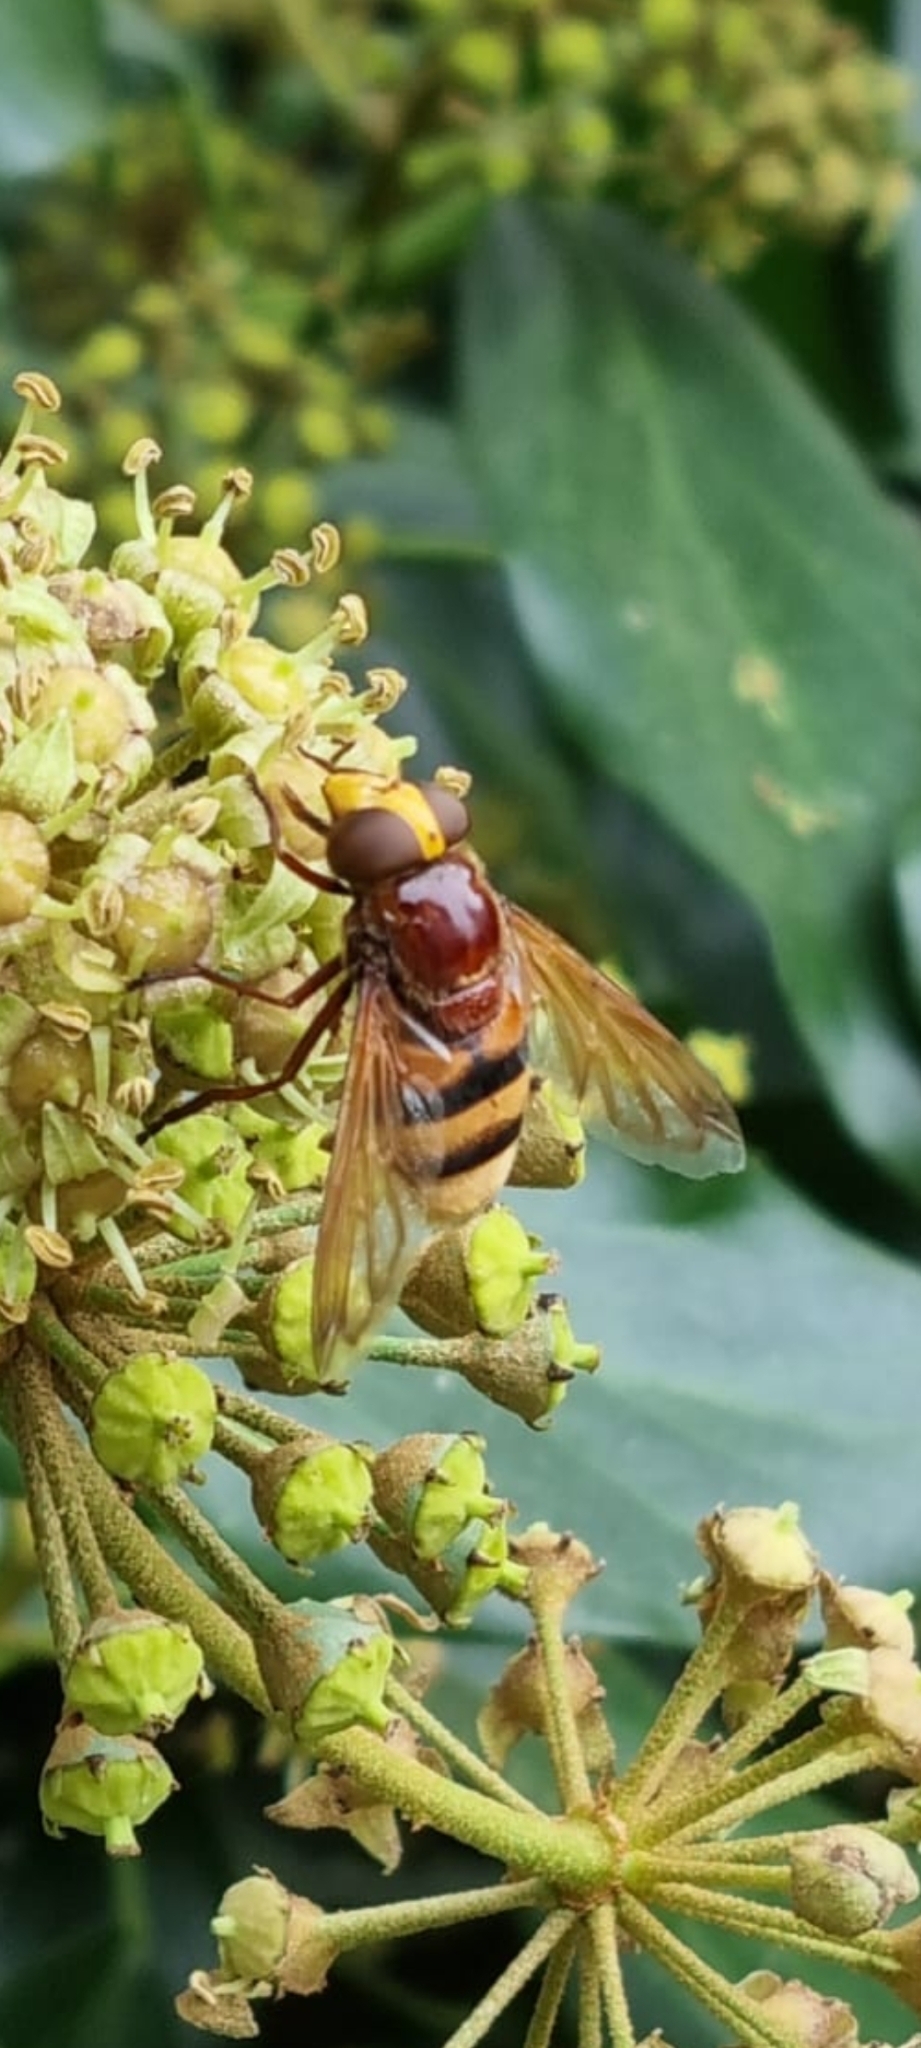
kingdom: Animalia
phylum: Arthropoda
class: Insecta
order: Diptera
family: Syrphidae
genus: Volucella
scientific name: Volucella zonaria
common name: Hornet hoverfly
